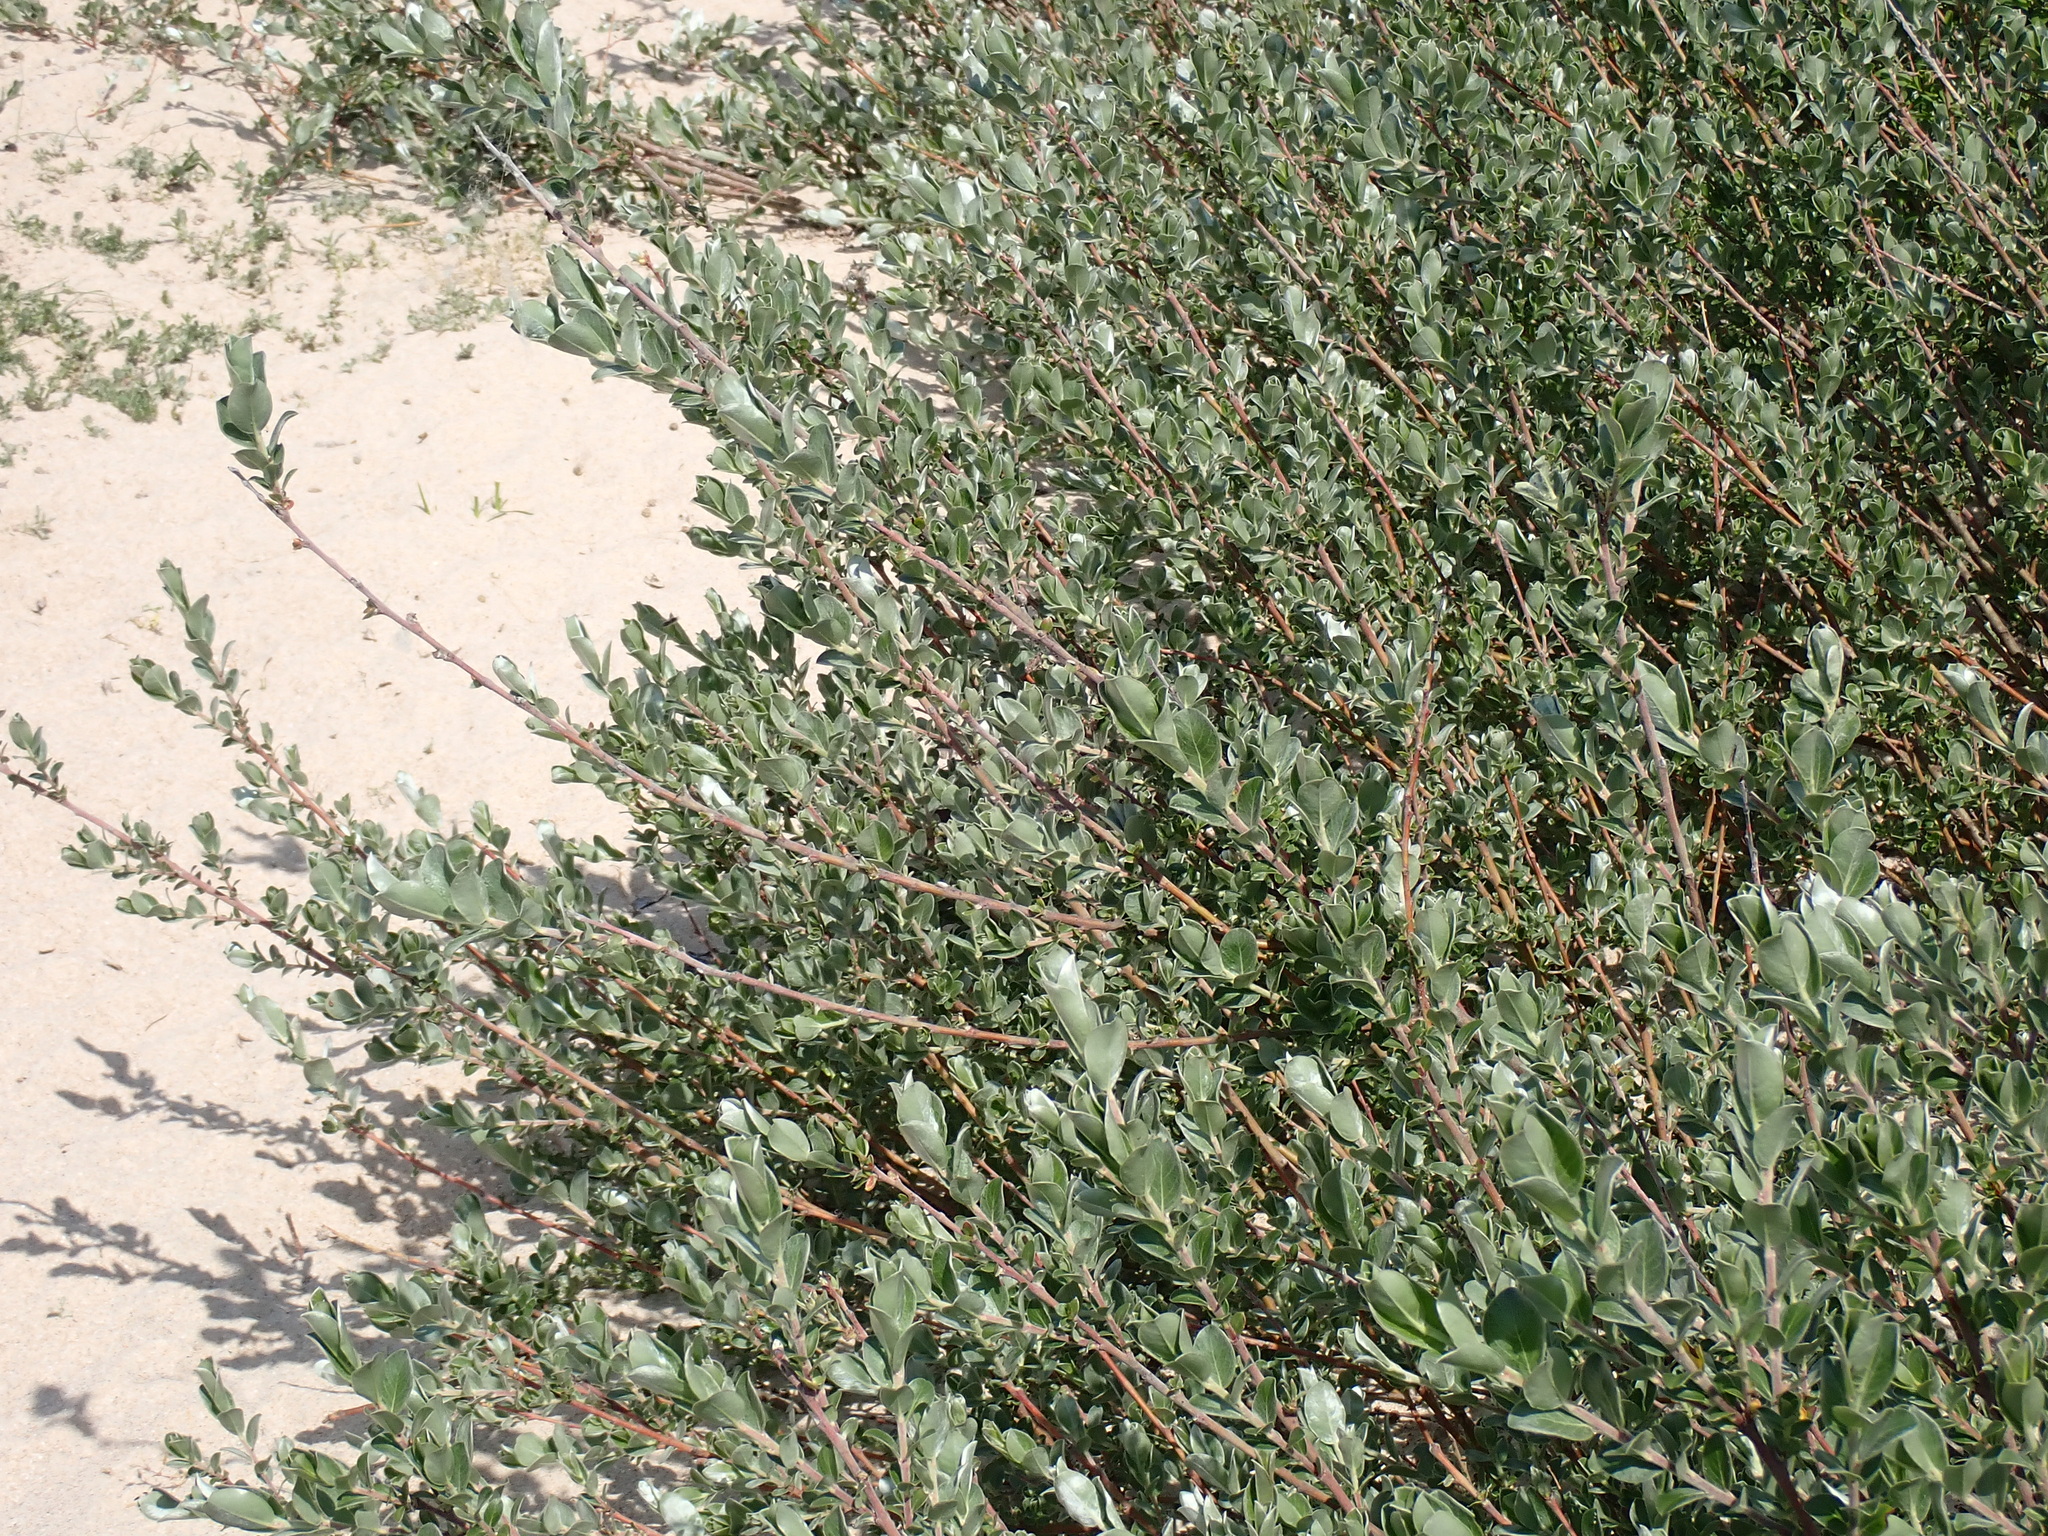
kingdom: Plantae
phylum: Tracheophyta
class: Magnoliopsida
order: Malpighiales
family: Salicaceae
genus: Salix
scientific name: Salix repens
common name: Creeping willow
